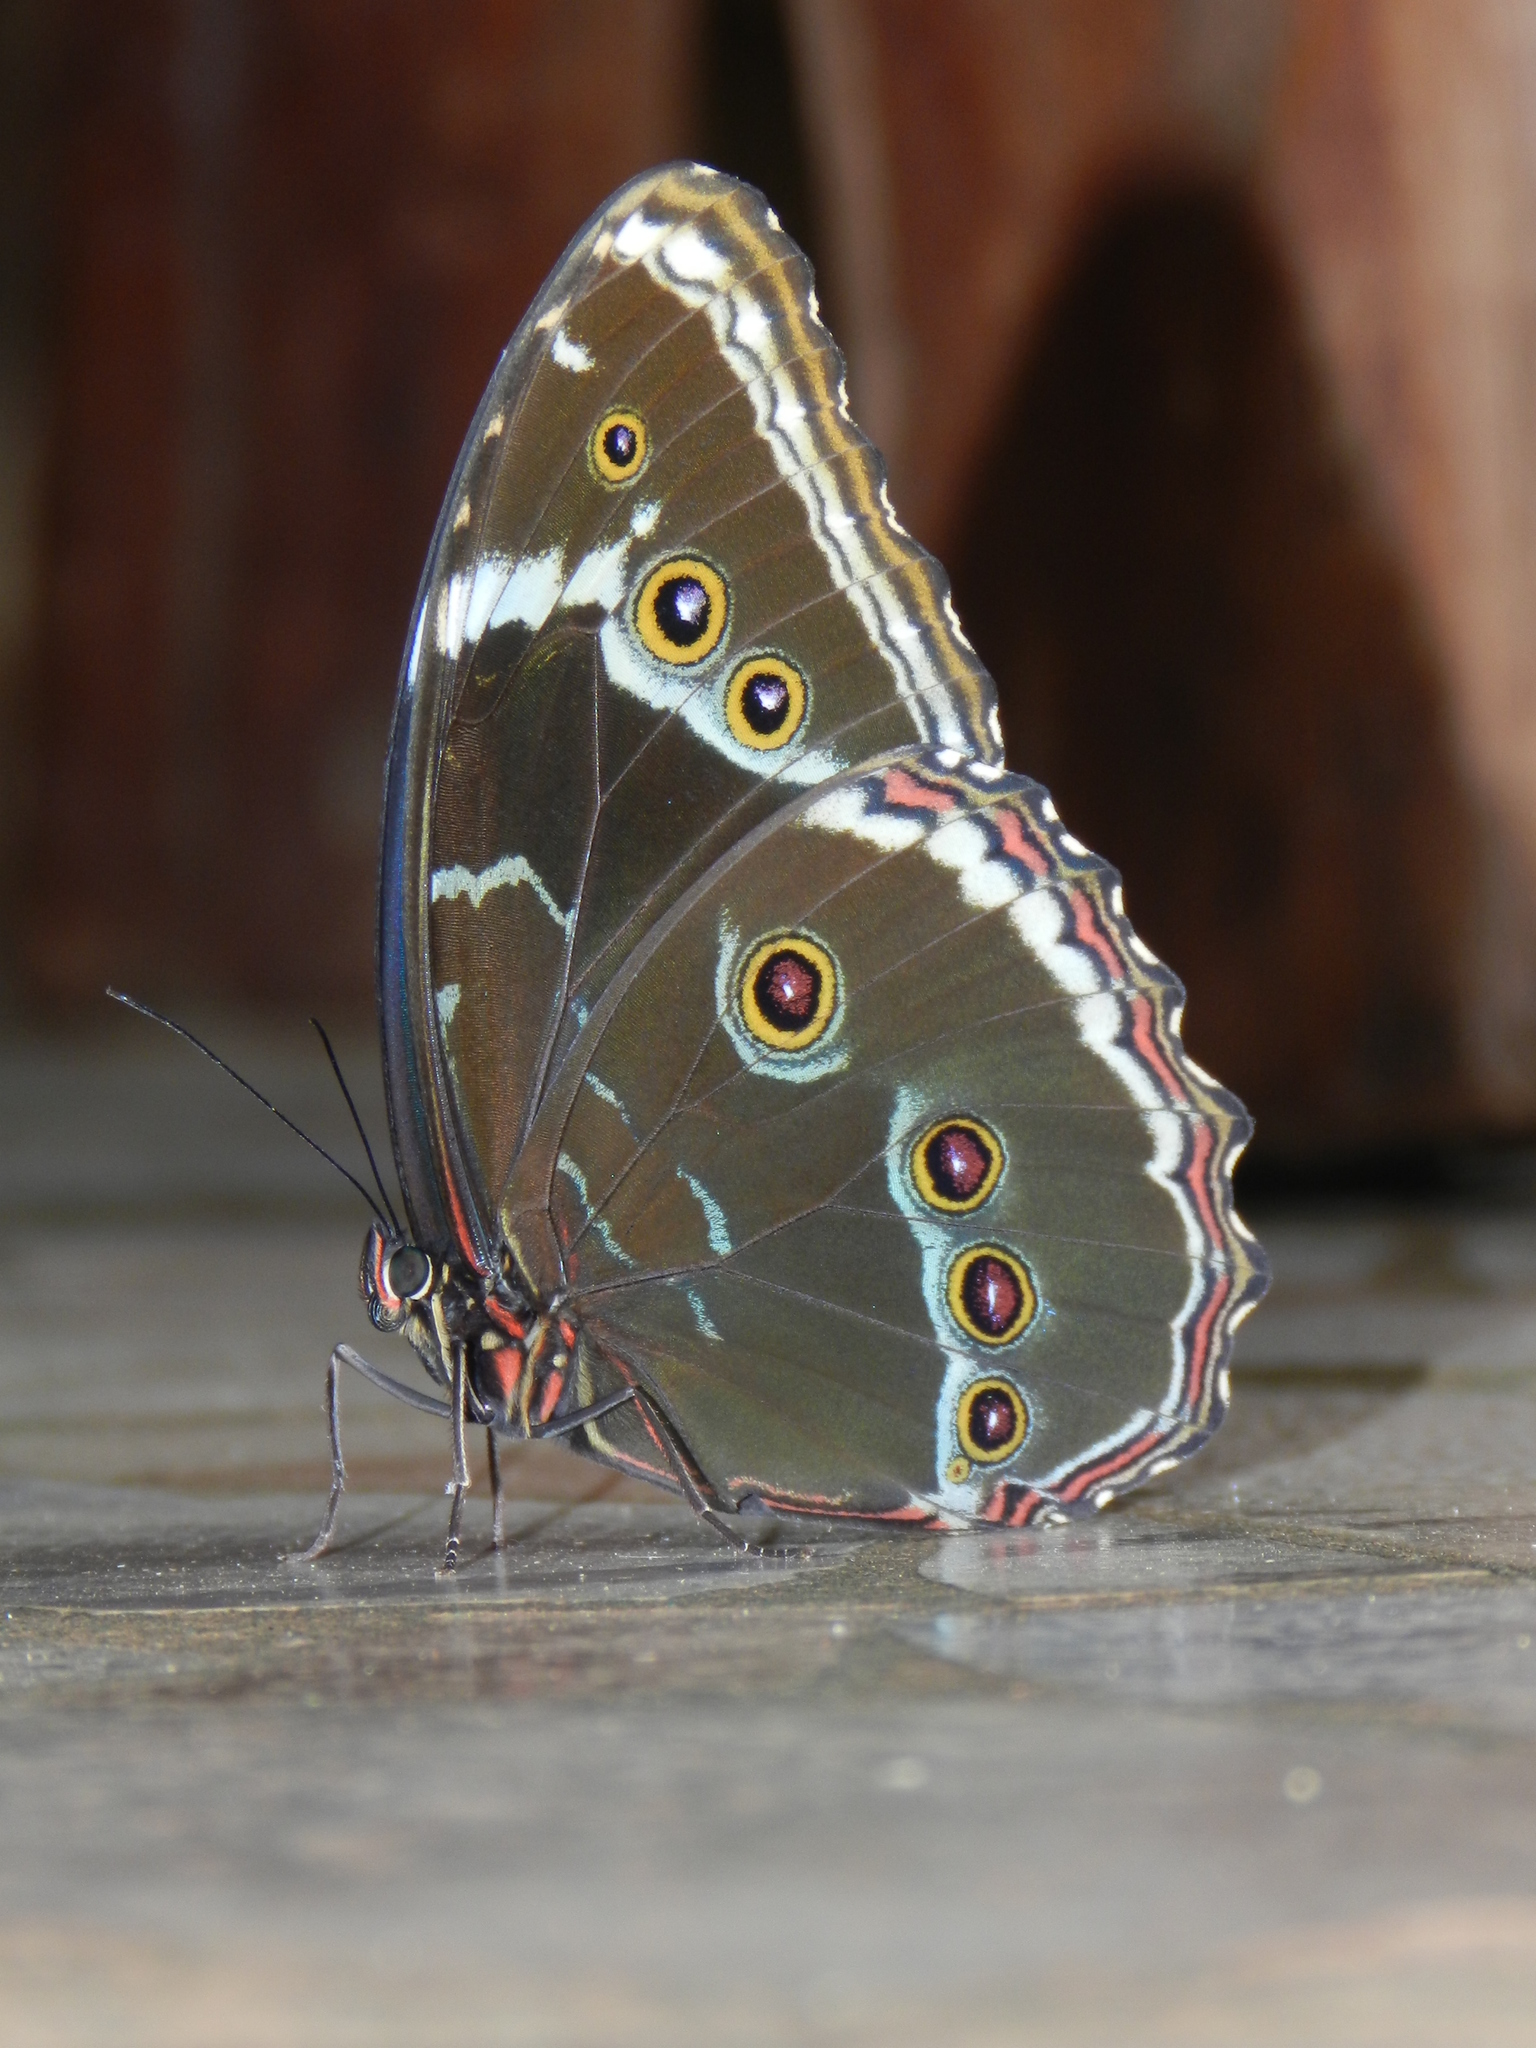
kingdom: Animalia
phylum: Arthropoda
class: Insecta
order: Lepidoptera
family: Nymphalidae
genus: Morpho
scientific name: Morpho helenor
